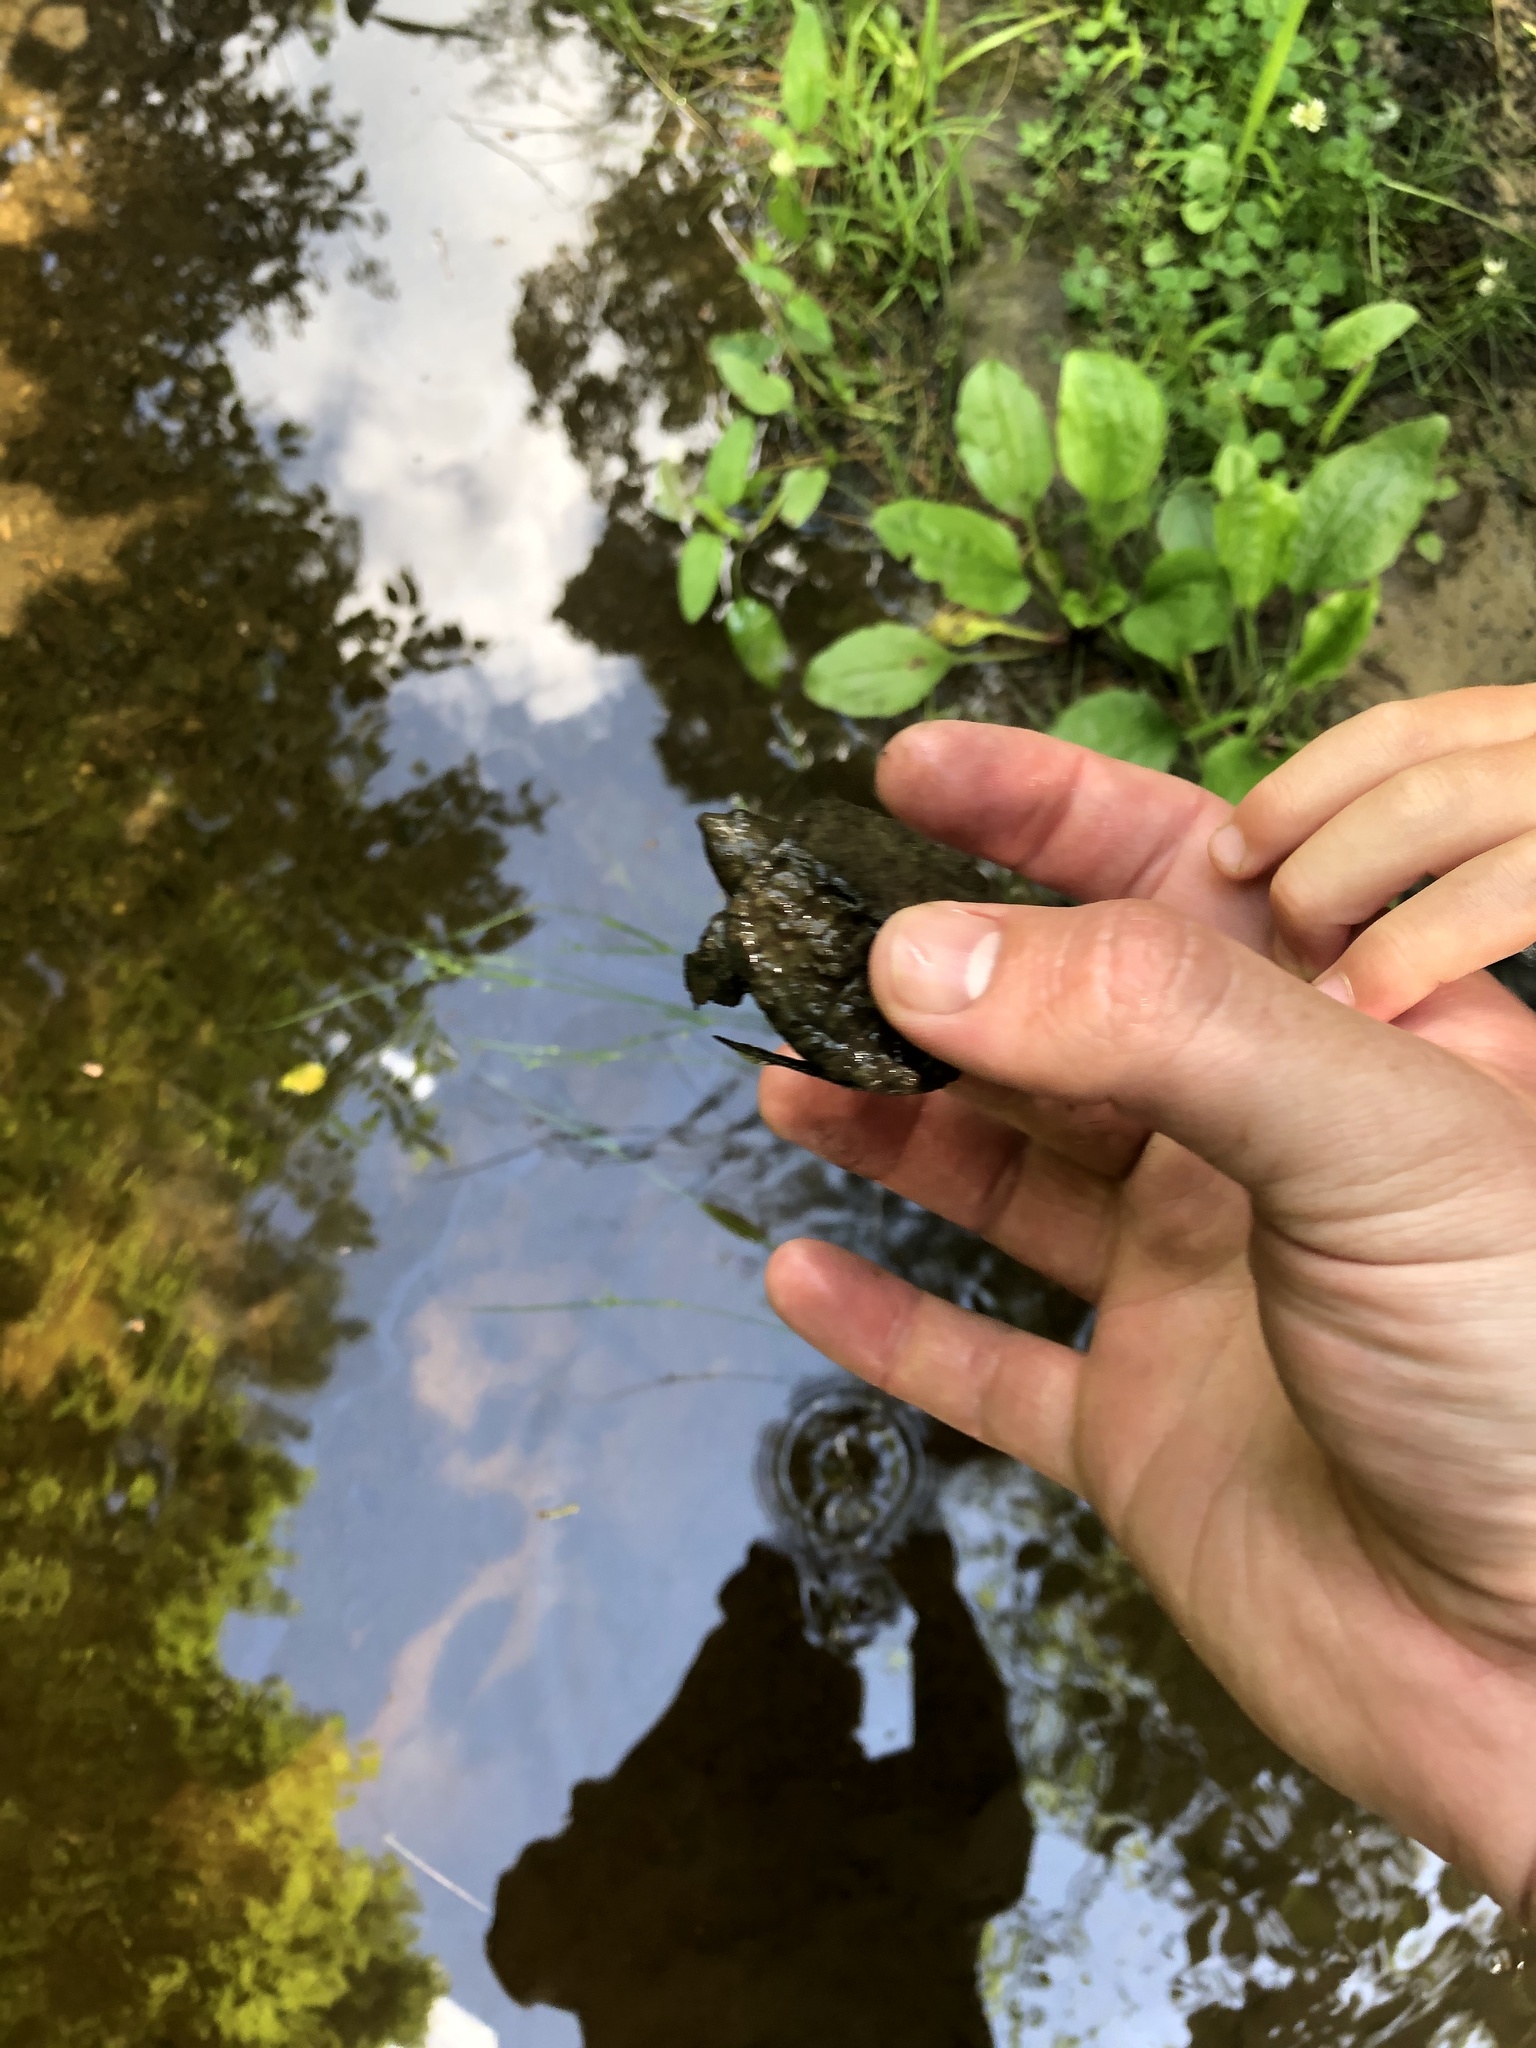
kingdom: Animalia
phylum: Chordata
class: Testudines
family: Chelydridae
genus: Chelydra
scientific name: Chelydra serpentina
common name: Common snapping turtle
